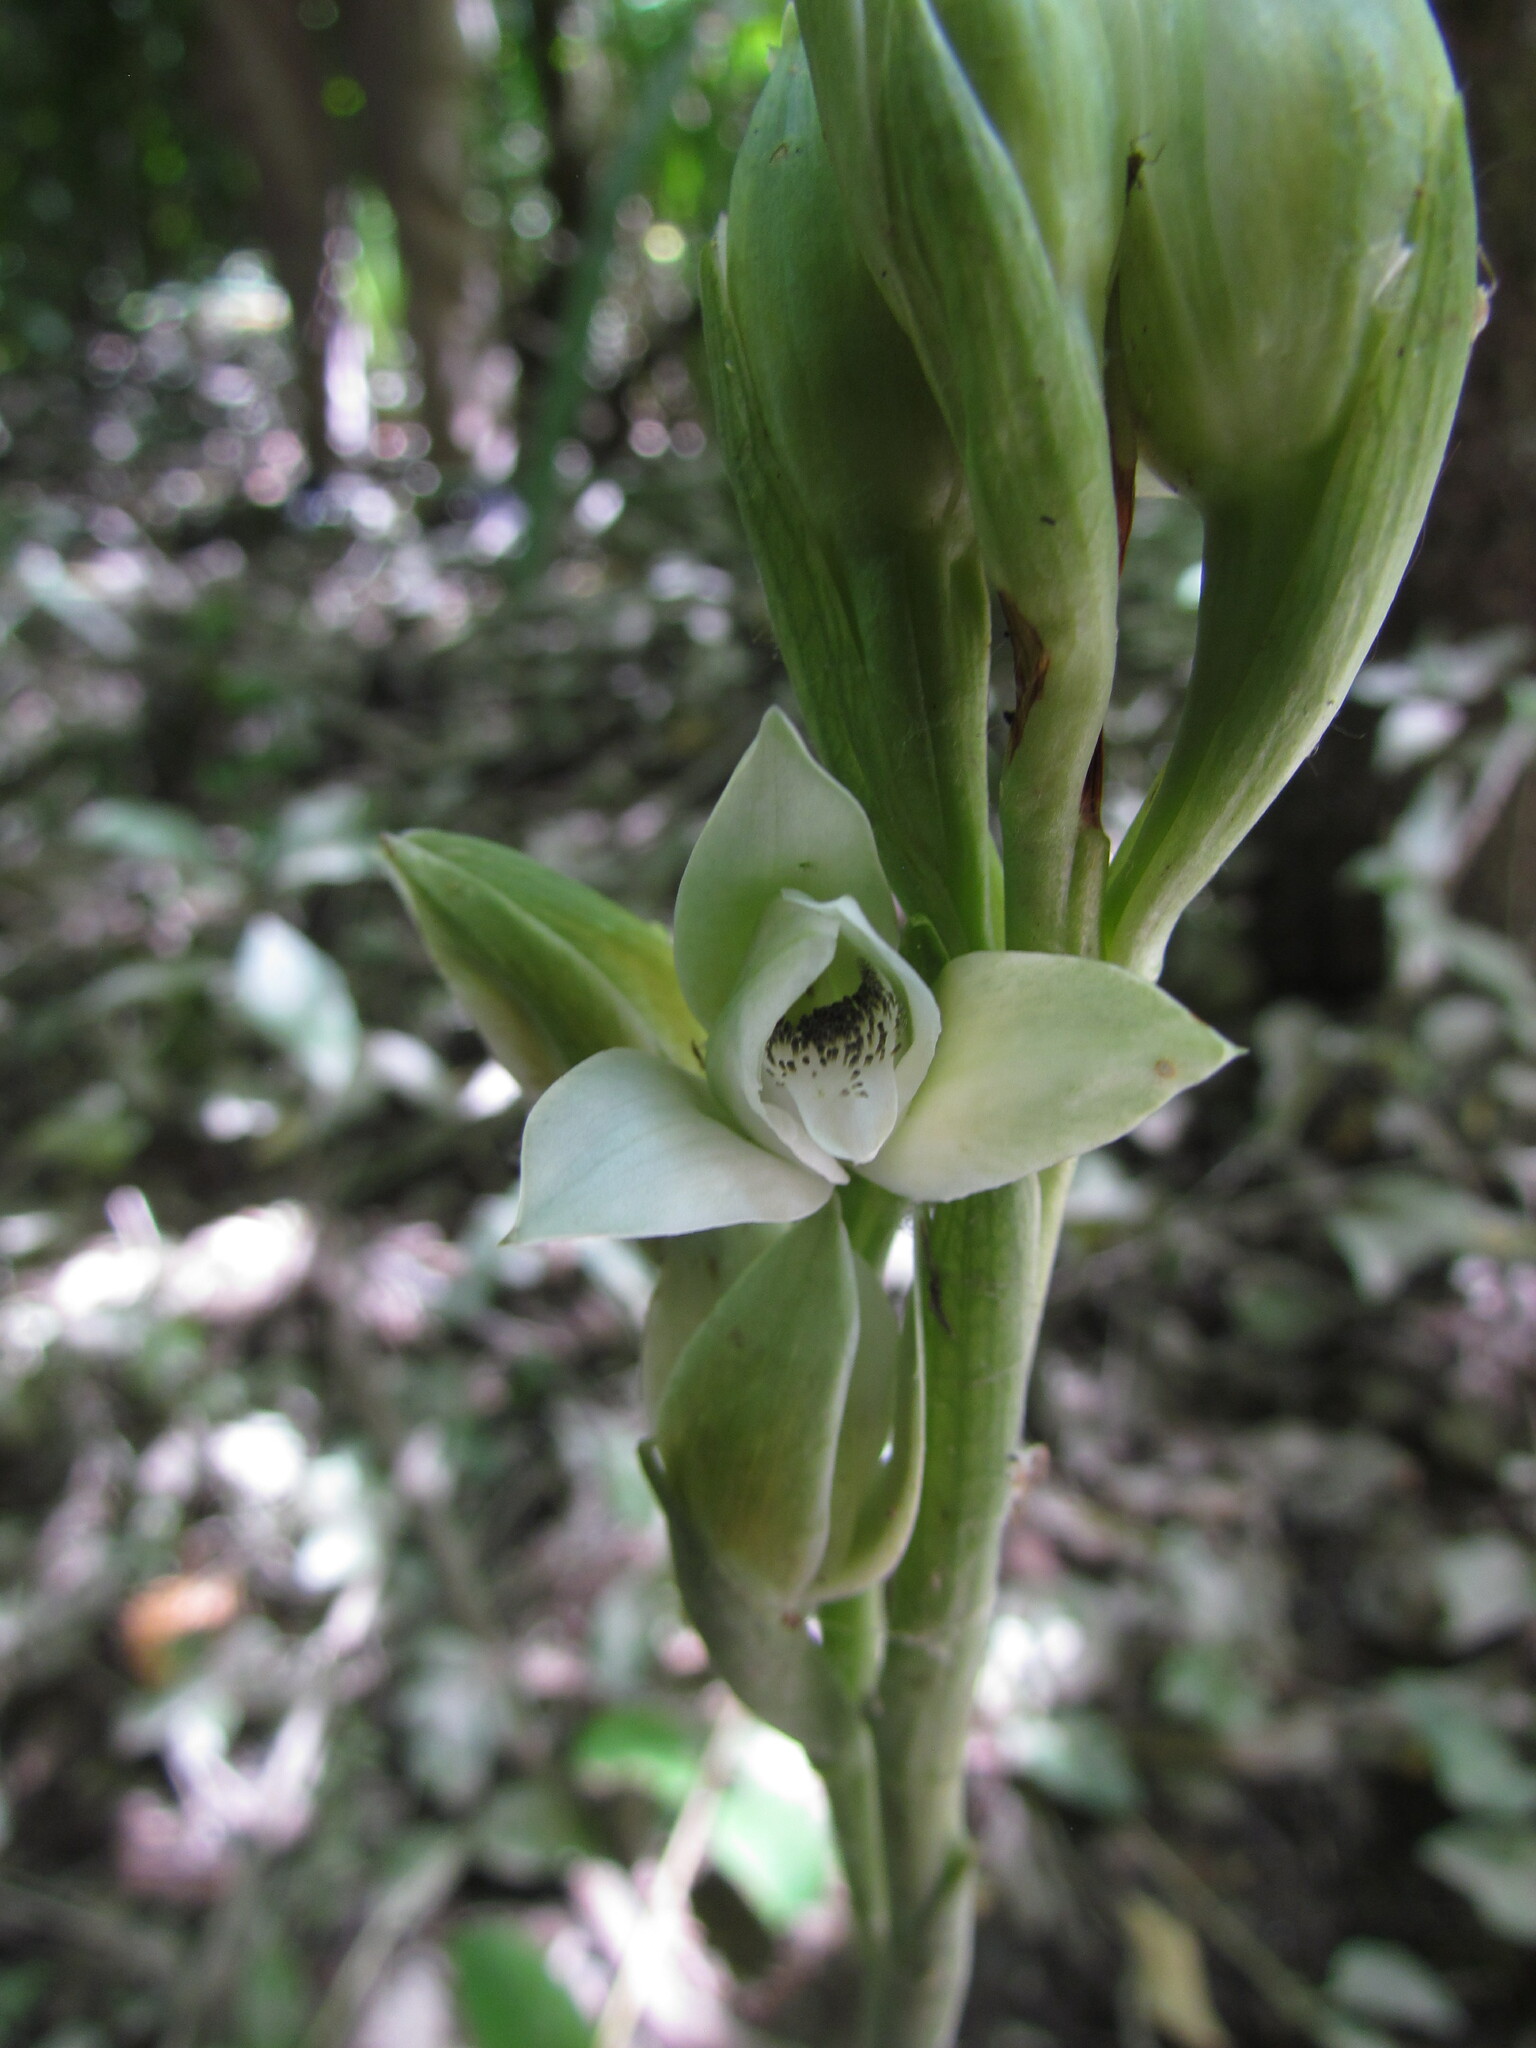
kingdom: Plantae
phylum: Tracheophyta
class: Liliopsida
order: Asparagales
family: Orchidaceae
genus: Chloraea
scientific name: Chloraea membranacea
